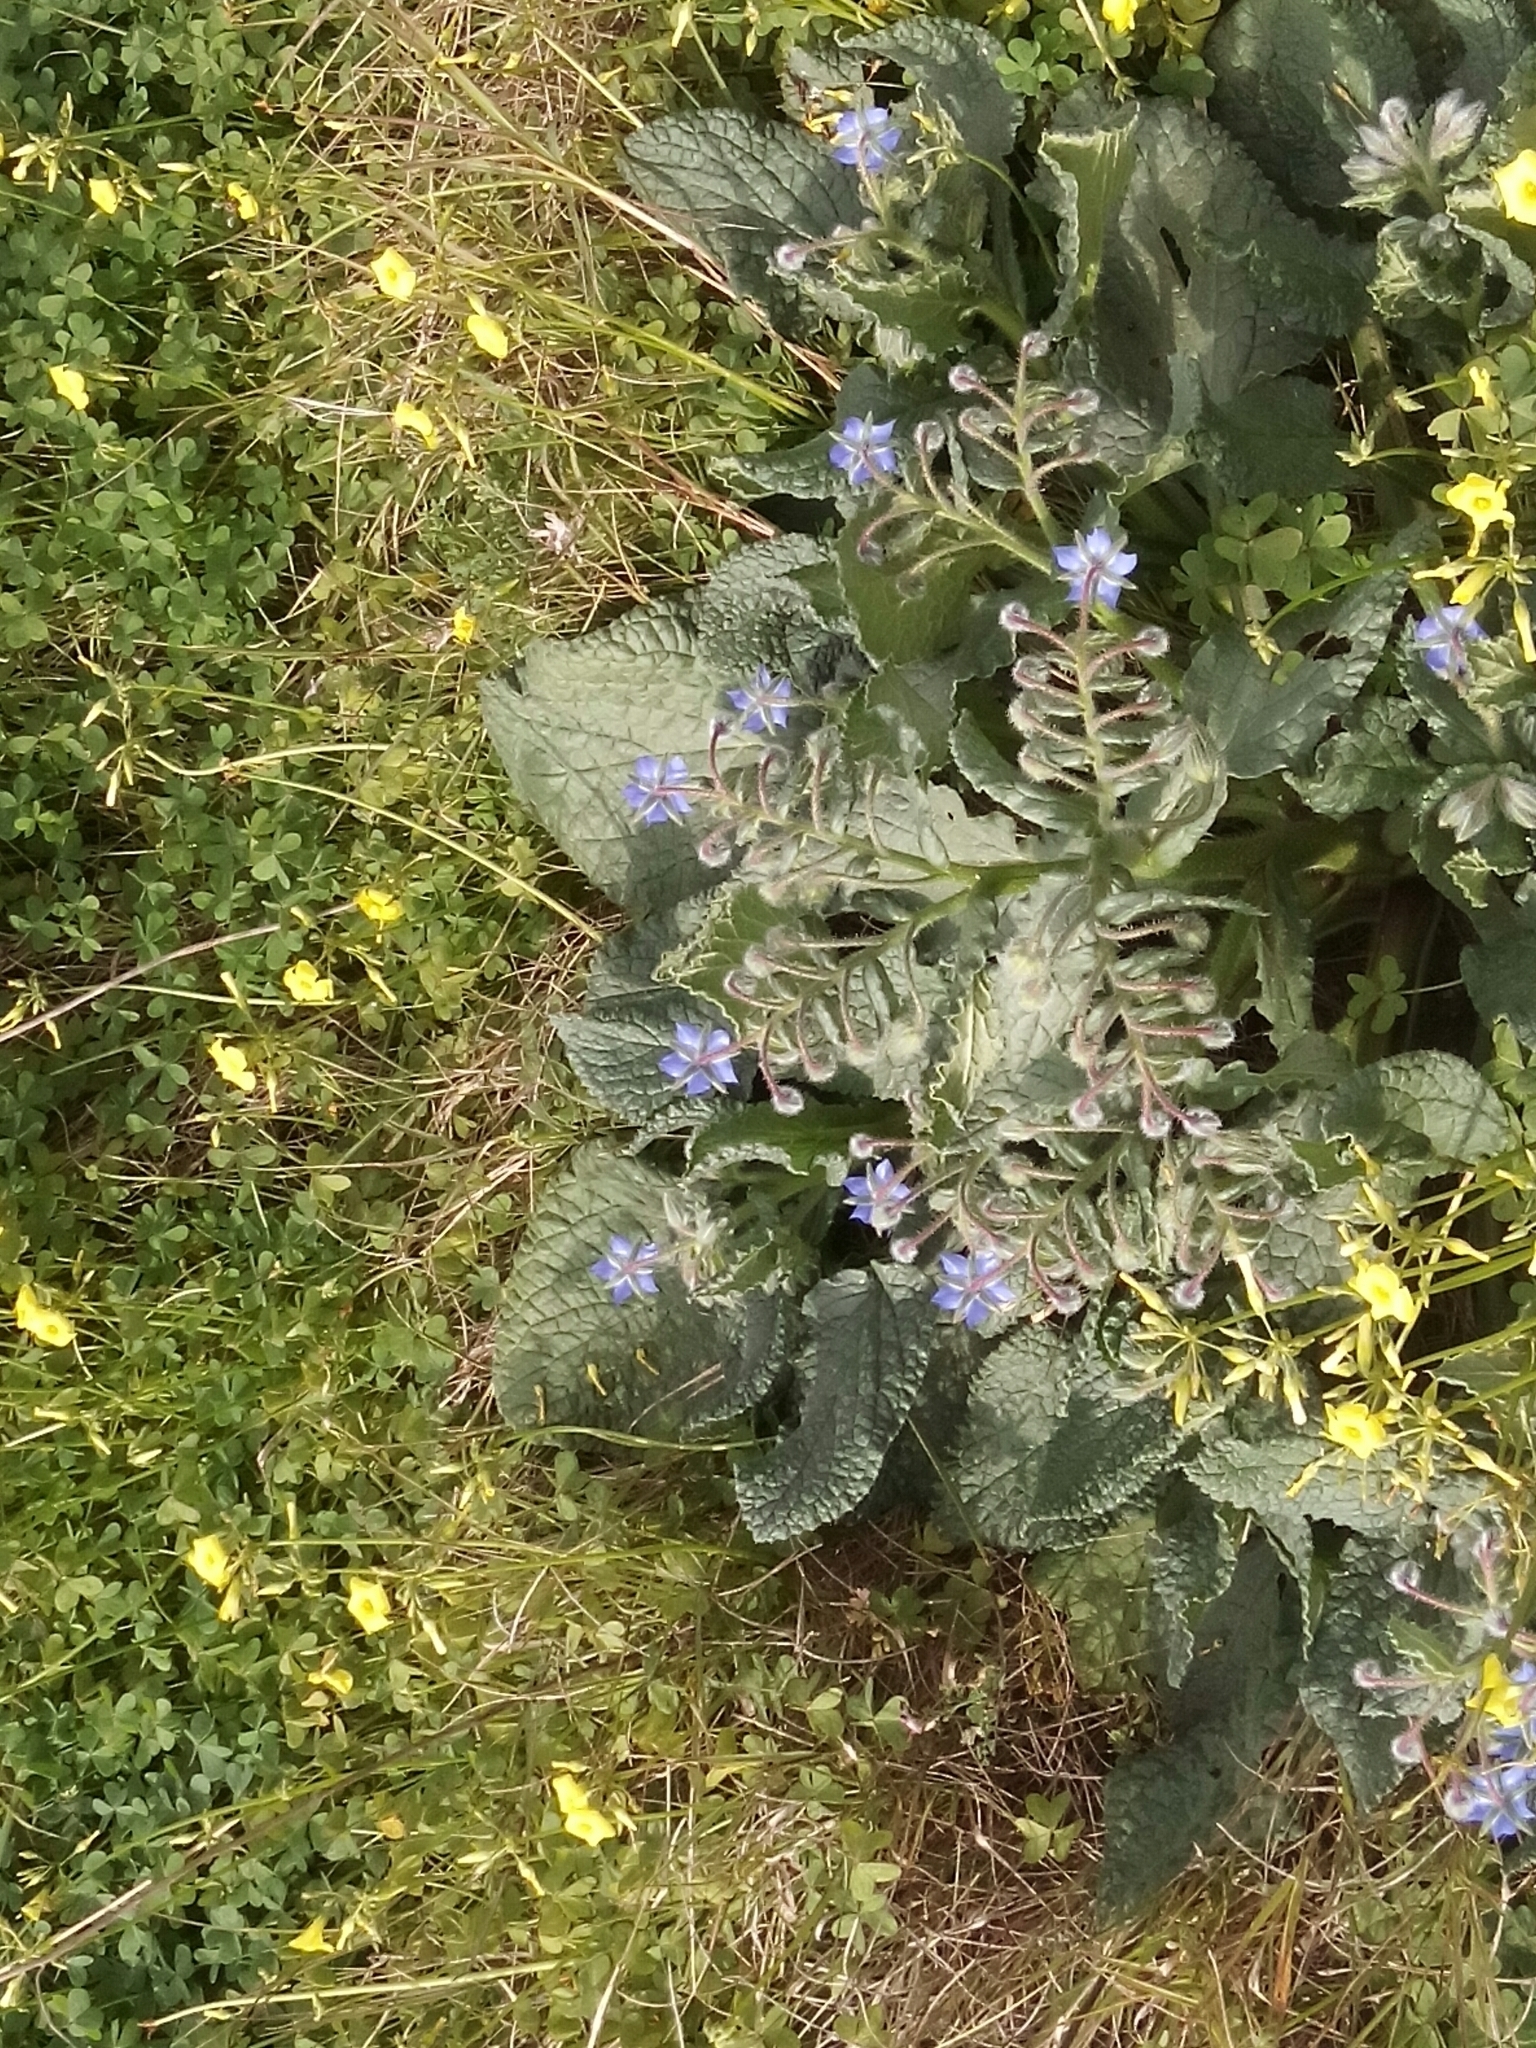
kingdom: Plantae
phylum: Tracheophyta
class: Magnoliopsida
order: Boraginales
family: Boraginaceae
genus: Borago
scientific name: Borago officinalis
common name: Borage
